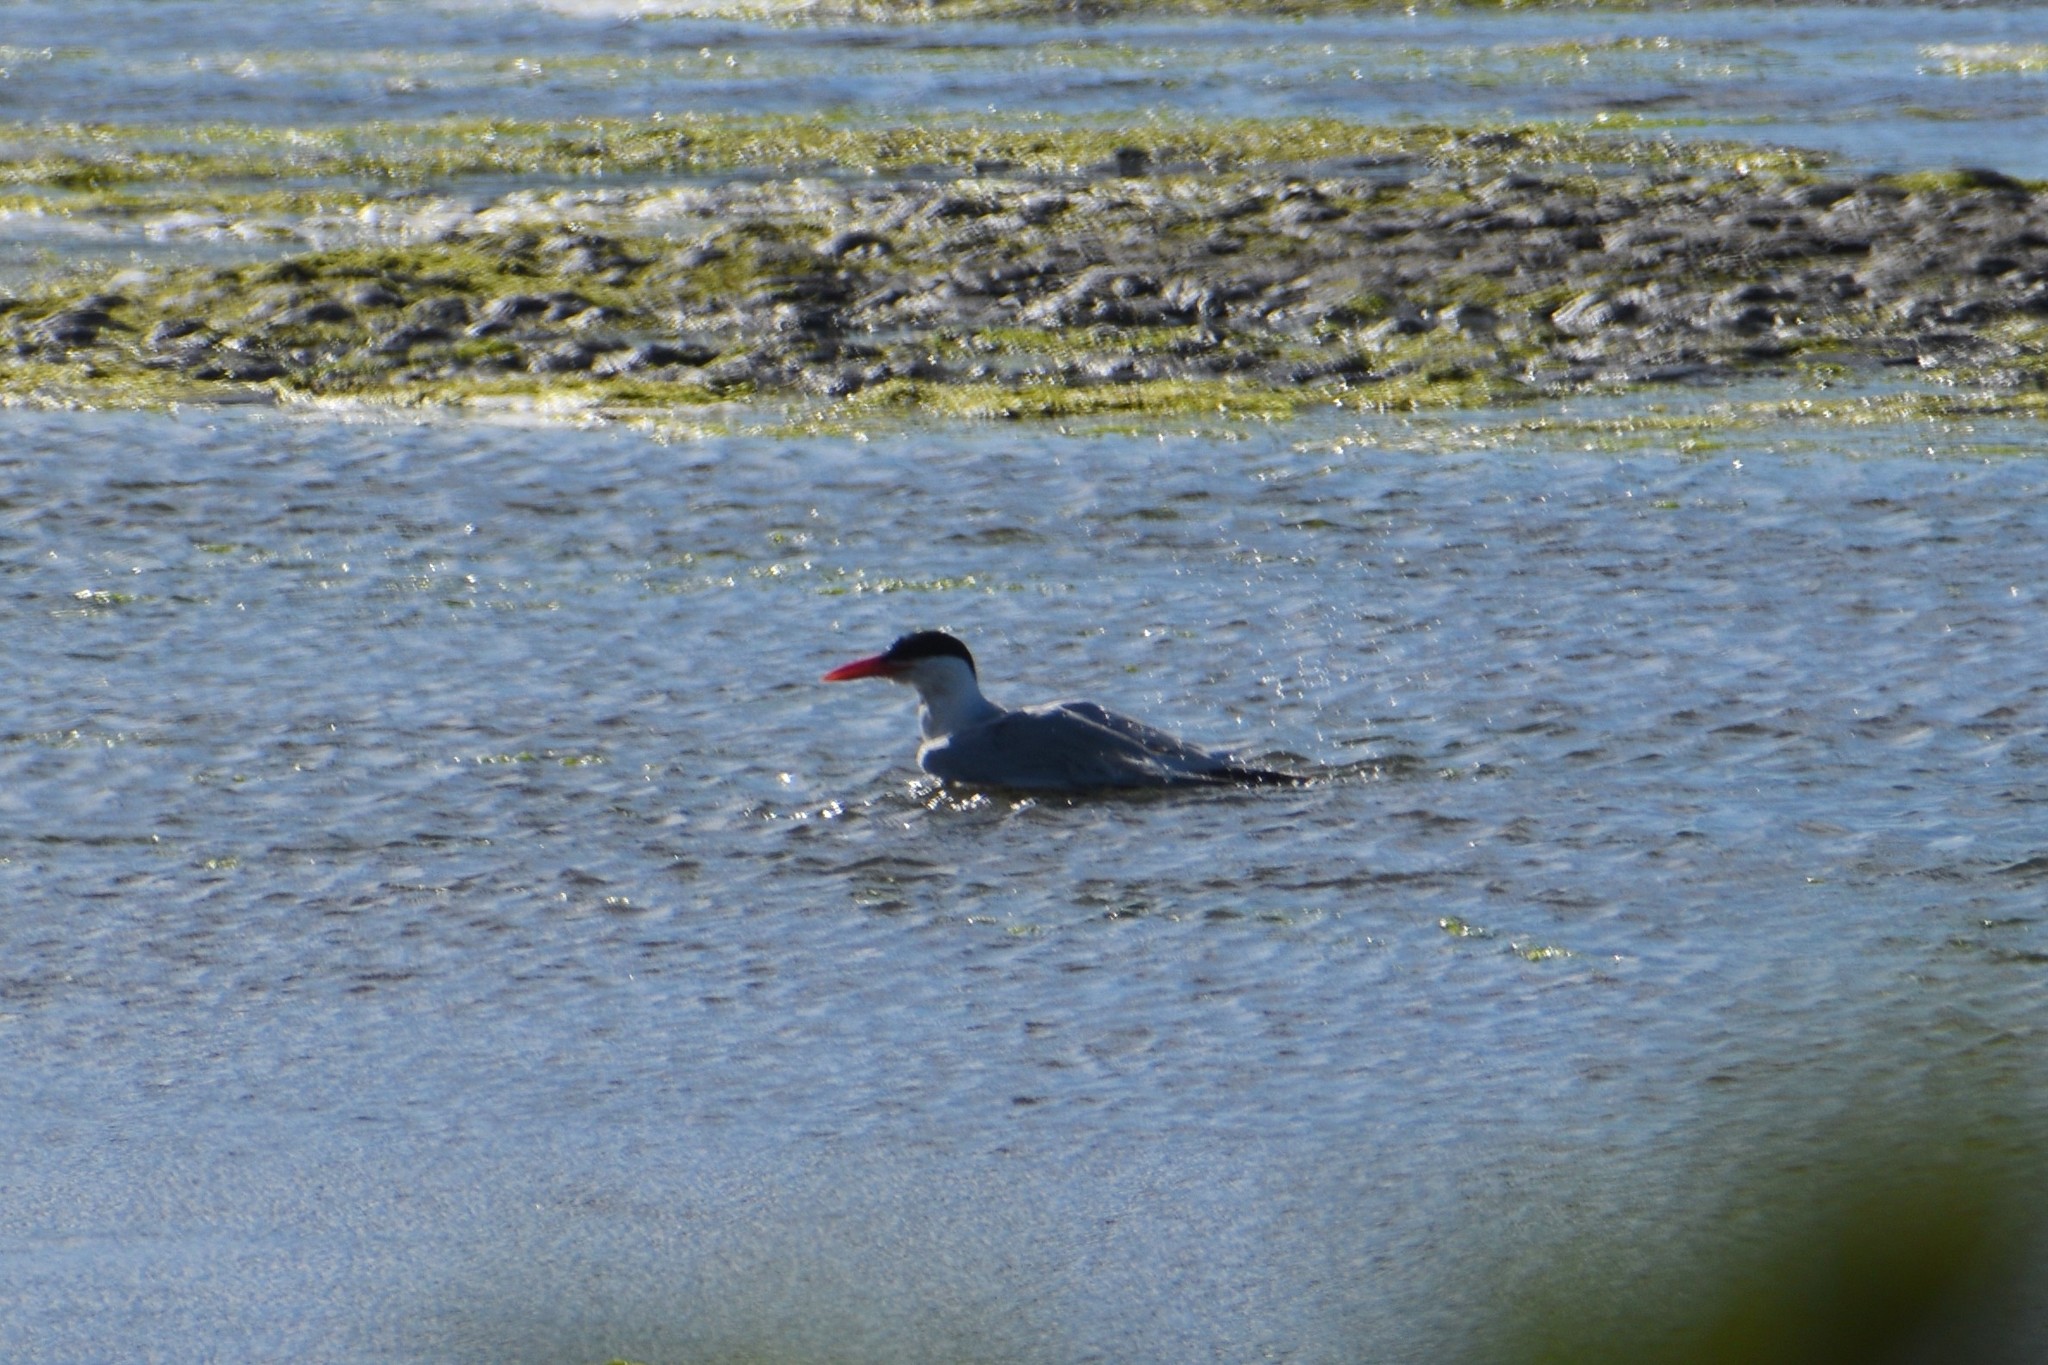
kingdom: Animalia
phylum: Chordata
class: Aves
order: Charadriiformes
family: Laridae
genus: Hydroprogne
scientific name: Hydroprogne caspia
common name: Caspian tern
